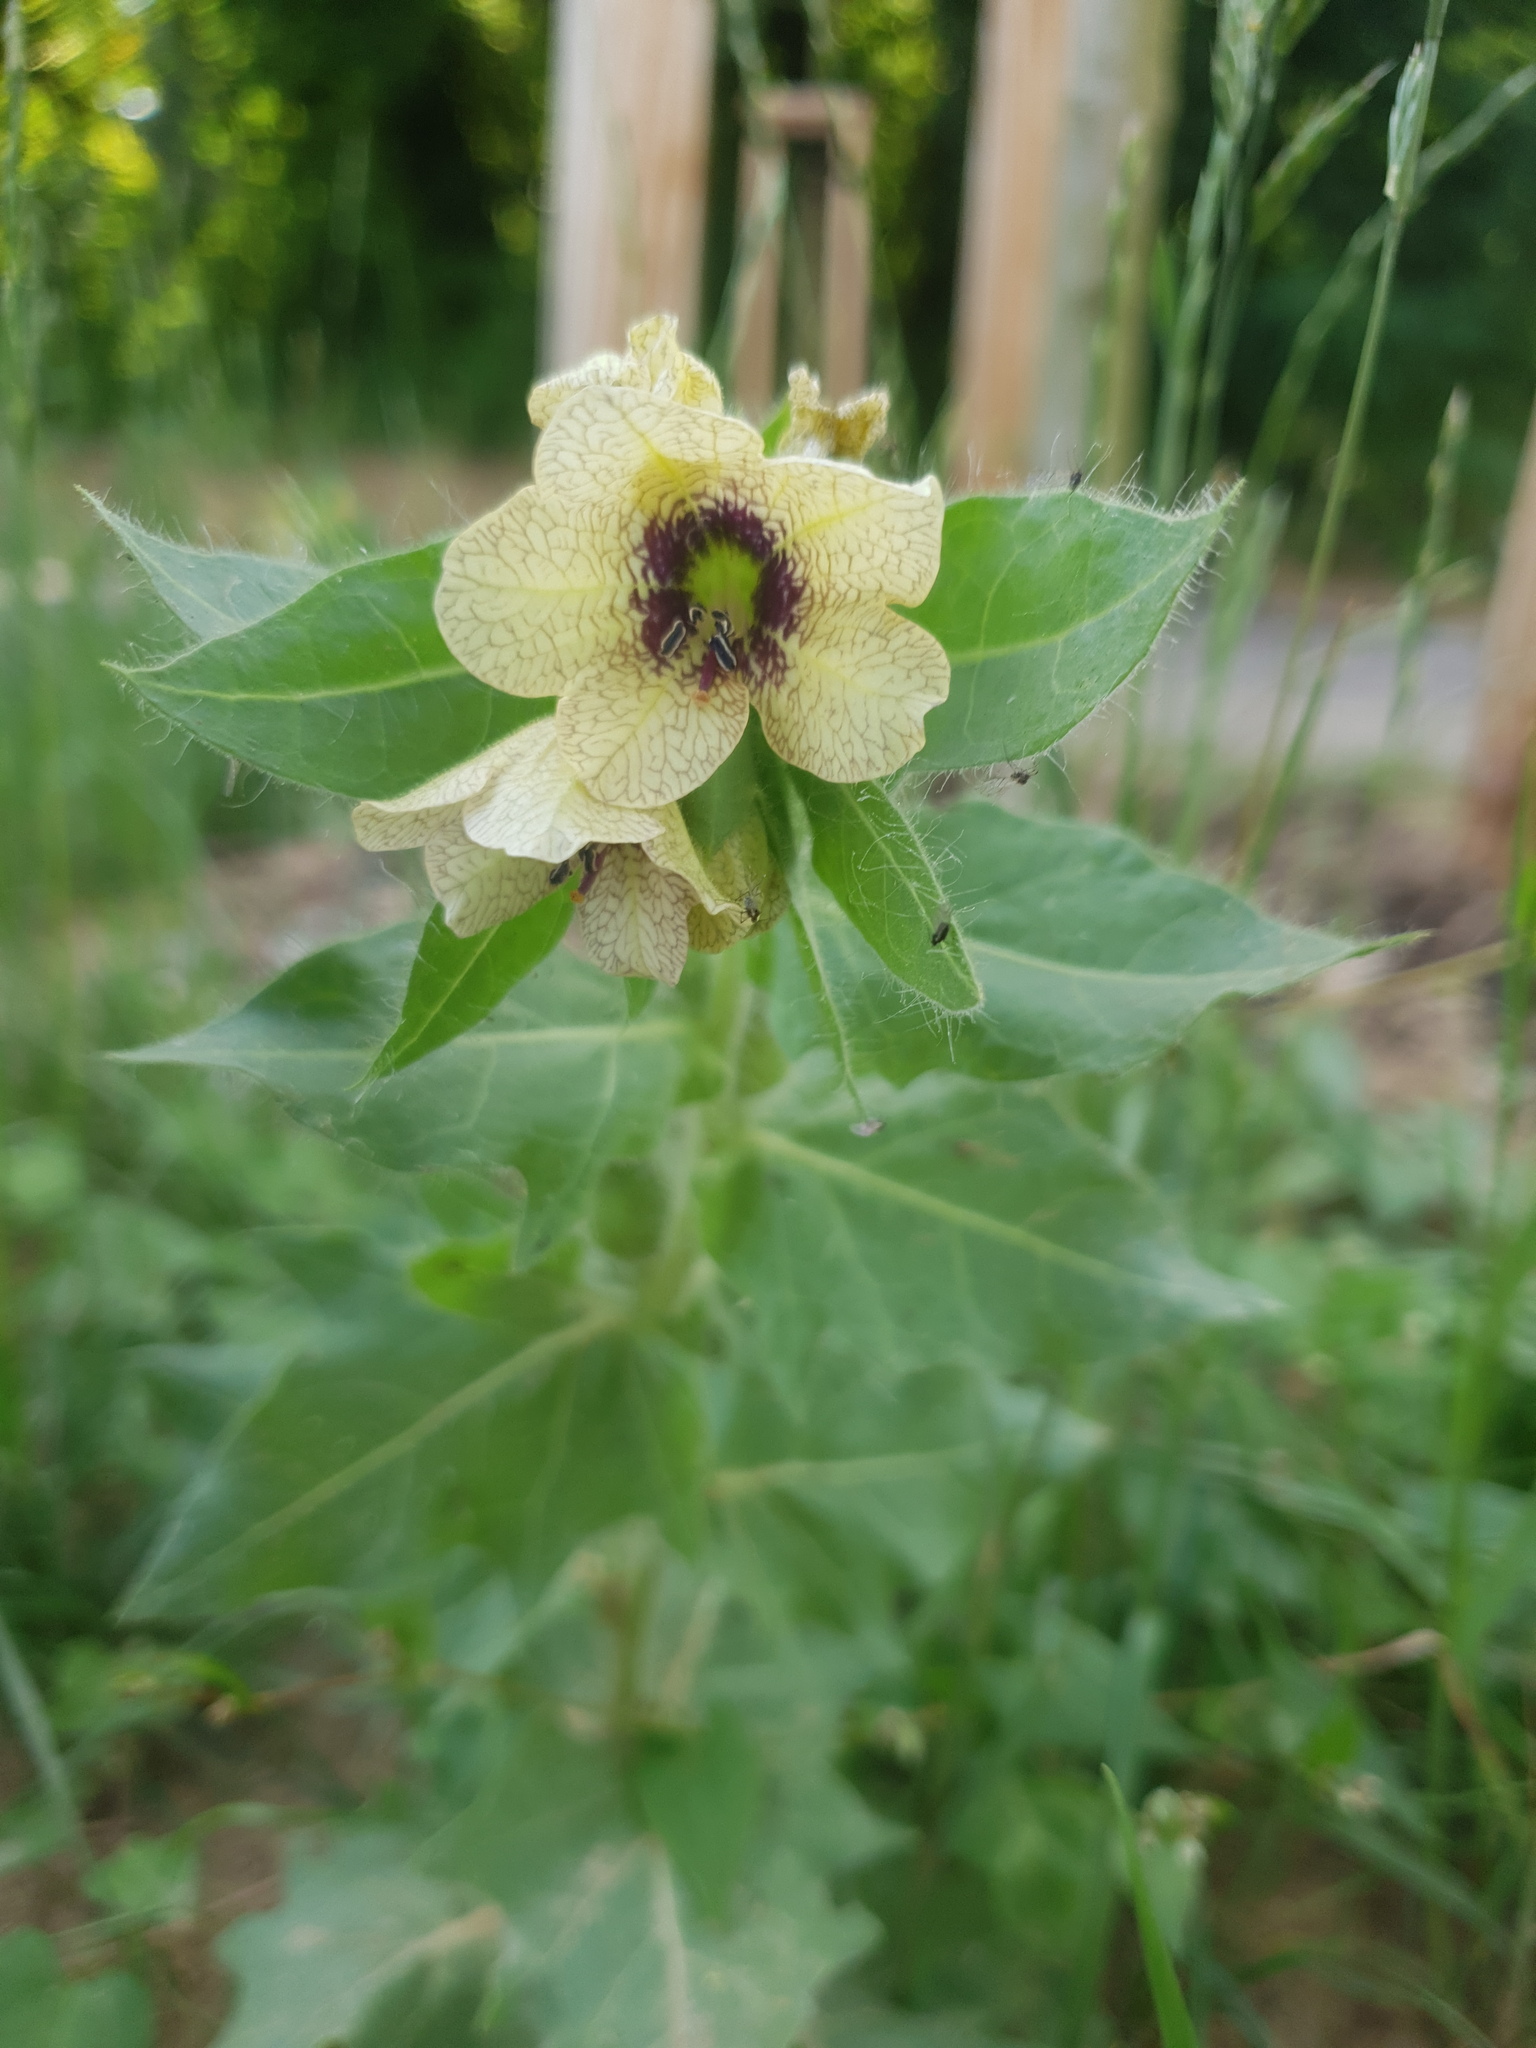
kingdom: Plantae
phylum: Tracheophyta
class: Magnoliopsida
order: Solanales
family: Solanaceae
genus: Hyoscyamus
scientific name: Hyoscyamus niger
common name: Henbane
